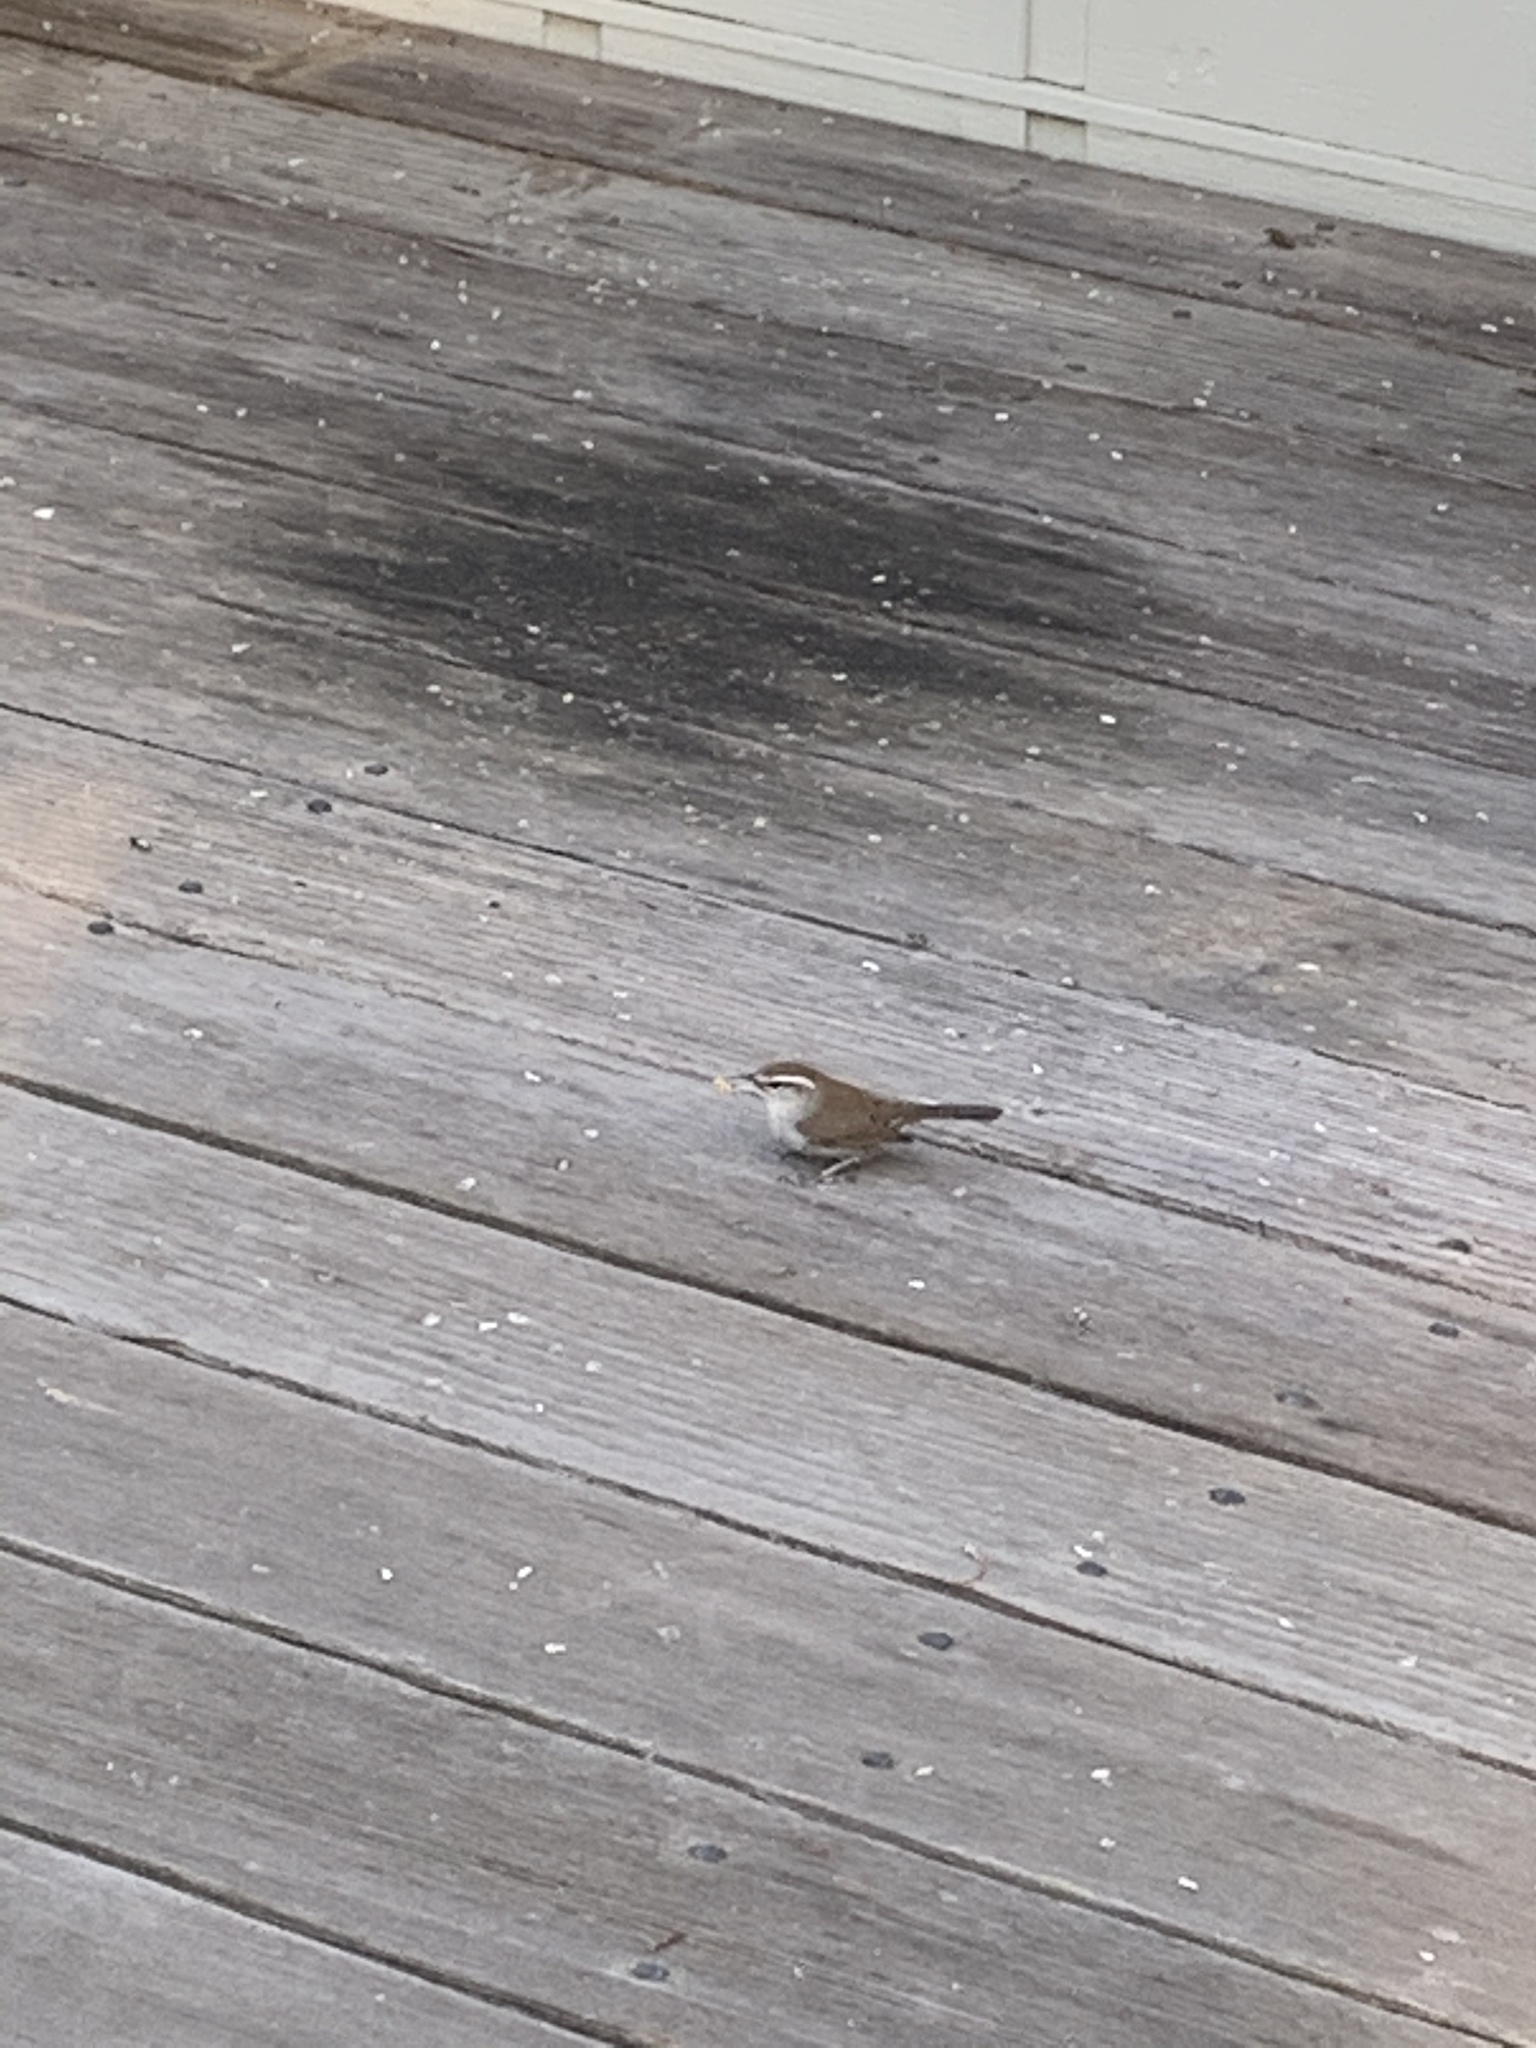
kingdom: Animalia
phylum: Chordata
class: Aves
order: Passeriformes
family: Troglodytidae
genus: Thryomanes
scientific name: Thryomanes bewickii
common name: Bewick's wren
